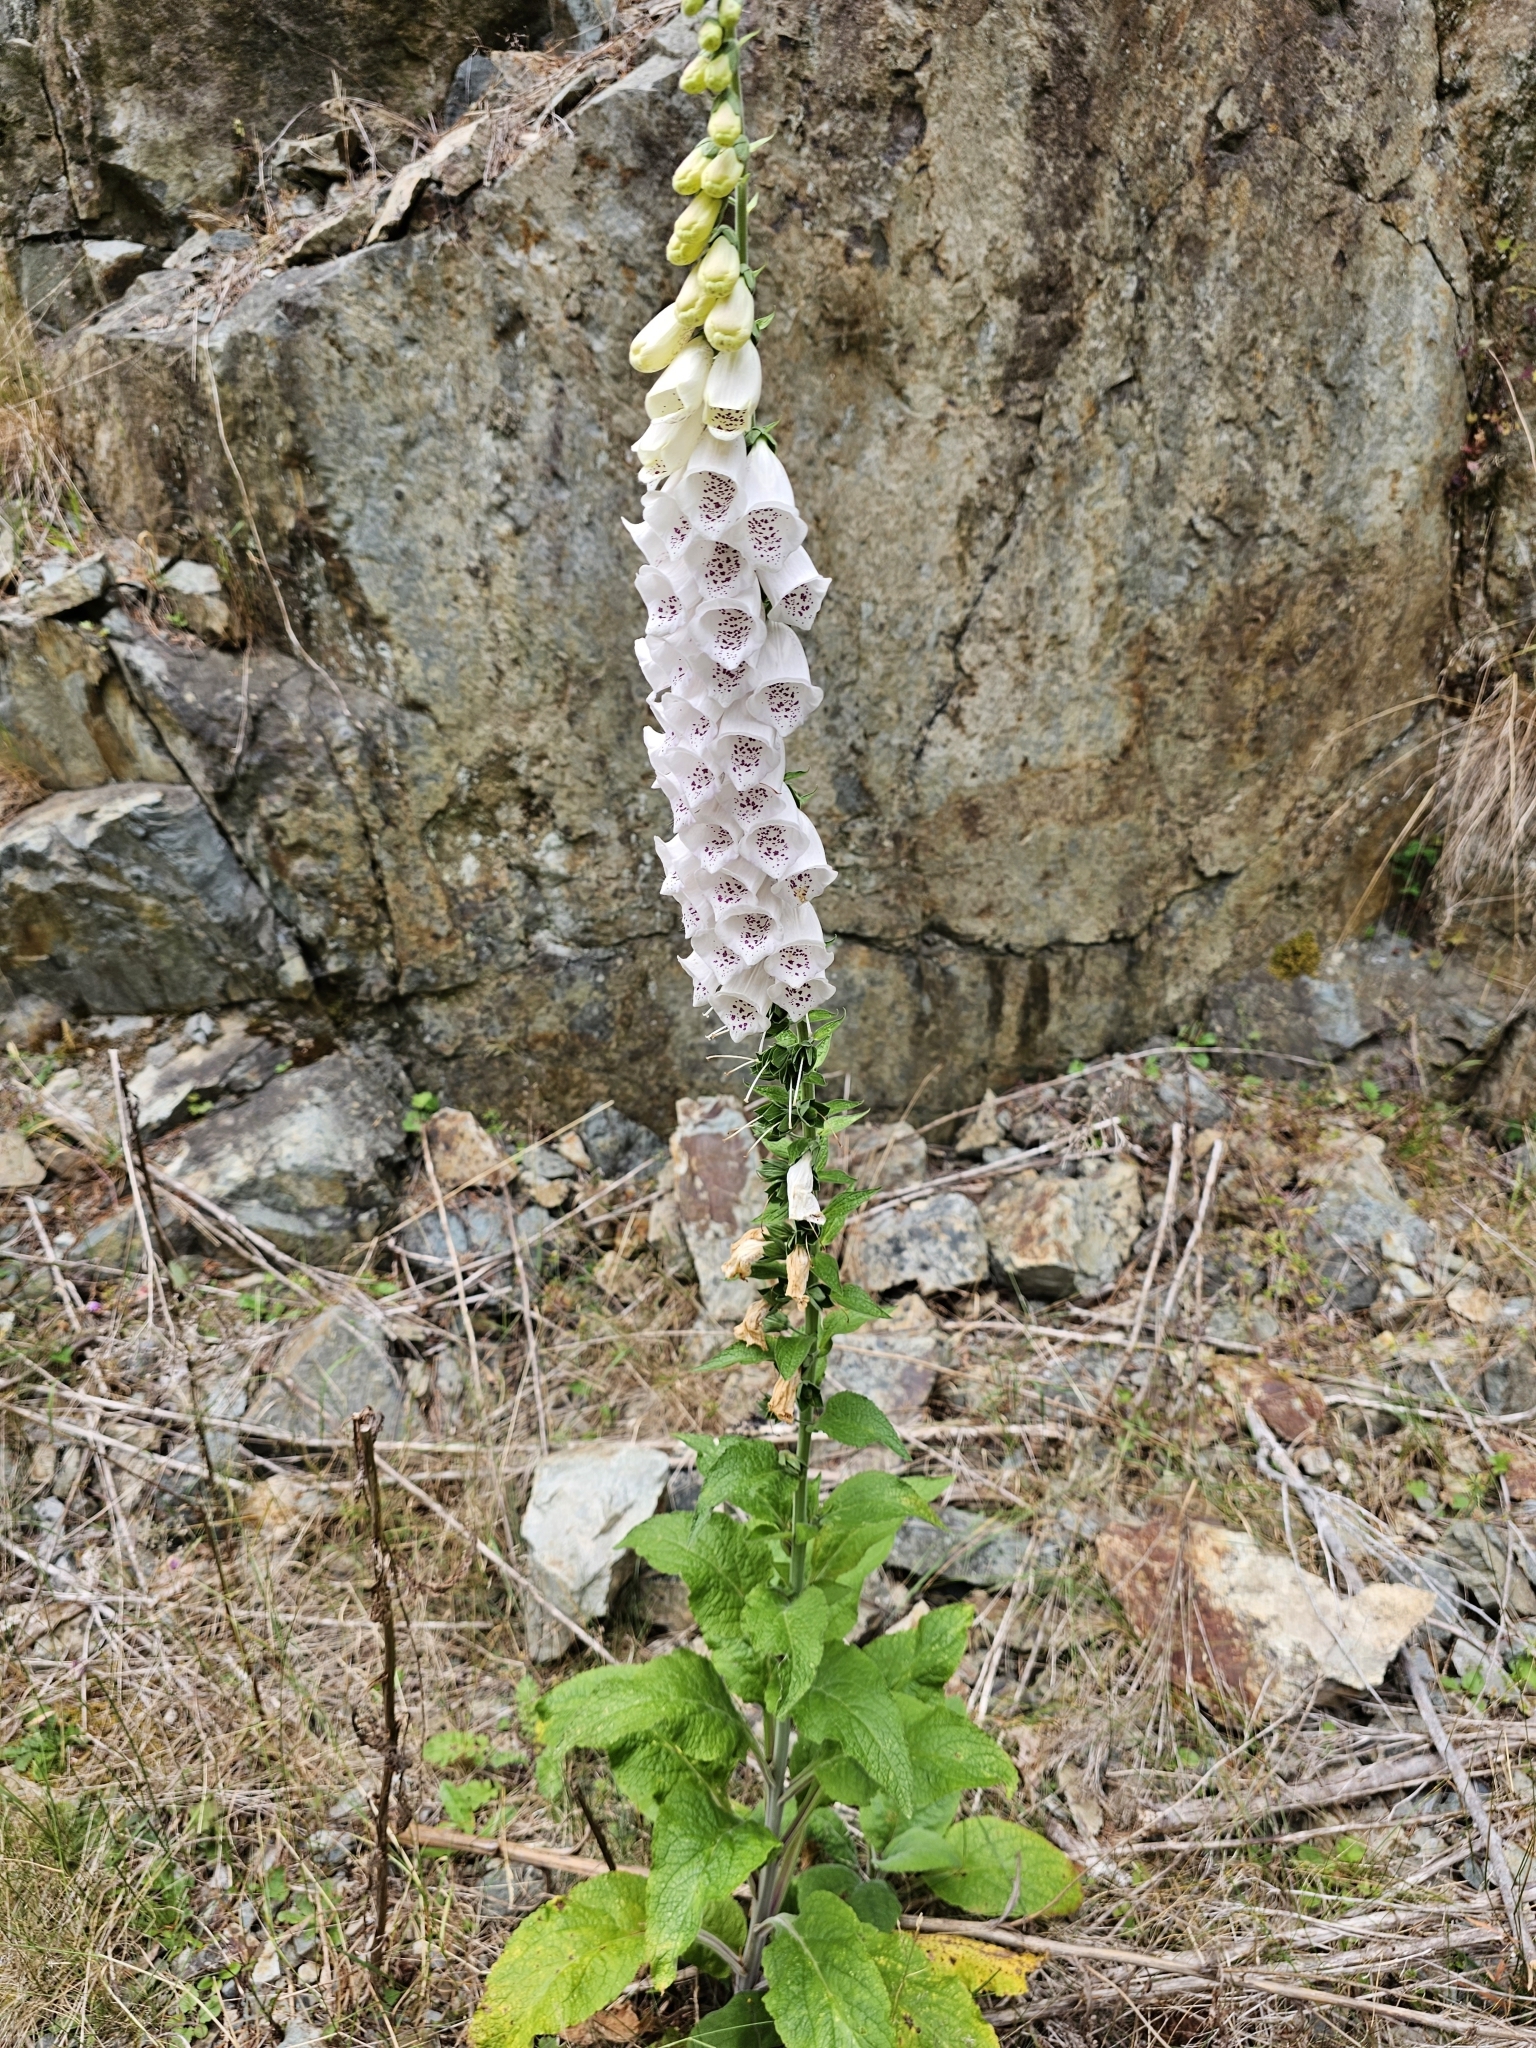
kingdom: Plantae
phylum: Tracheophyta
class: Magnoliopsida
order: Lamiales
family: Plantaginaceae
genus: Digitalis
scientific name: Digitalis purpurea
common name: Foxglove
